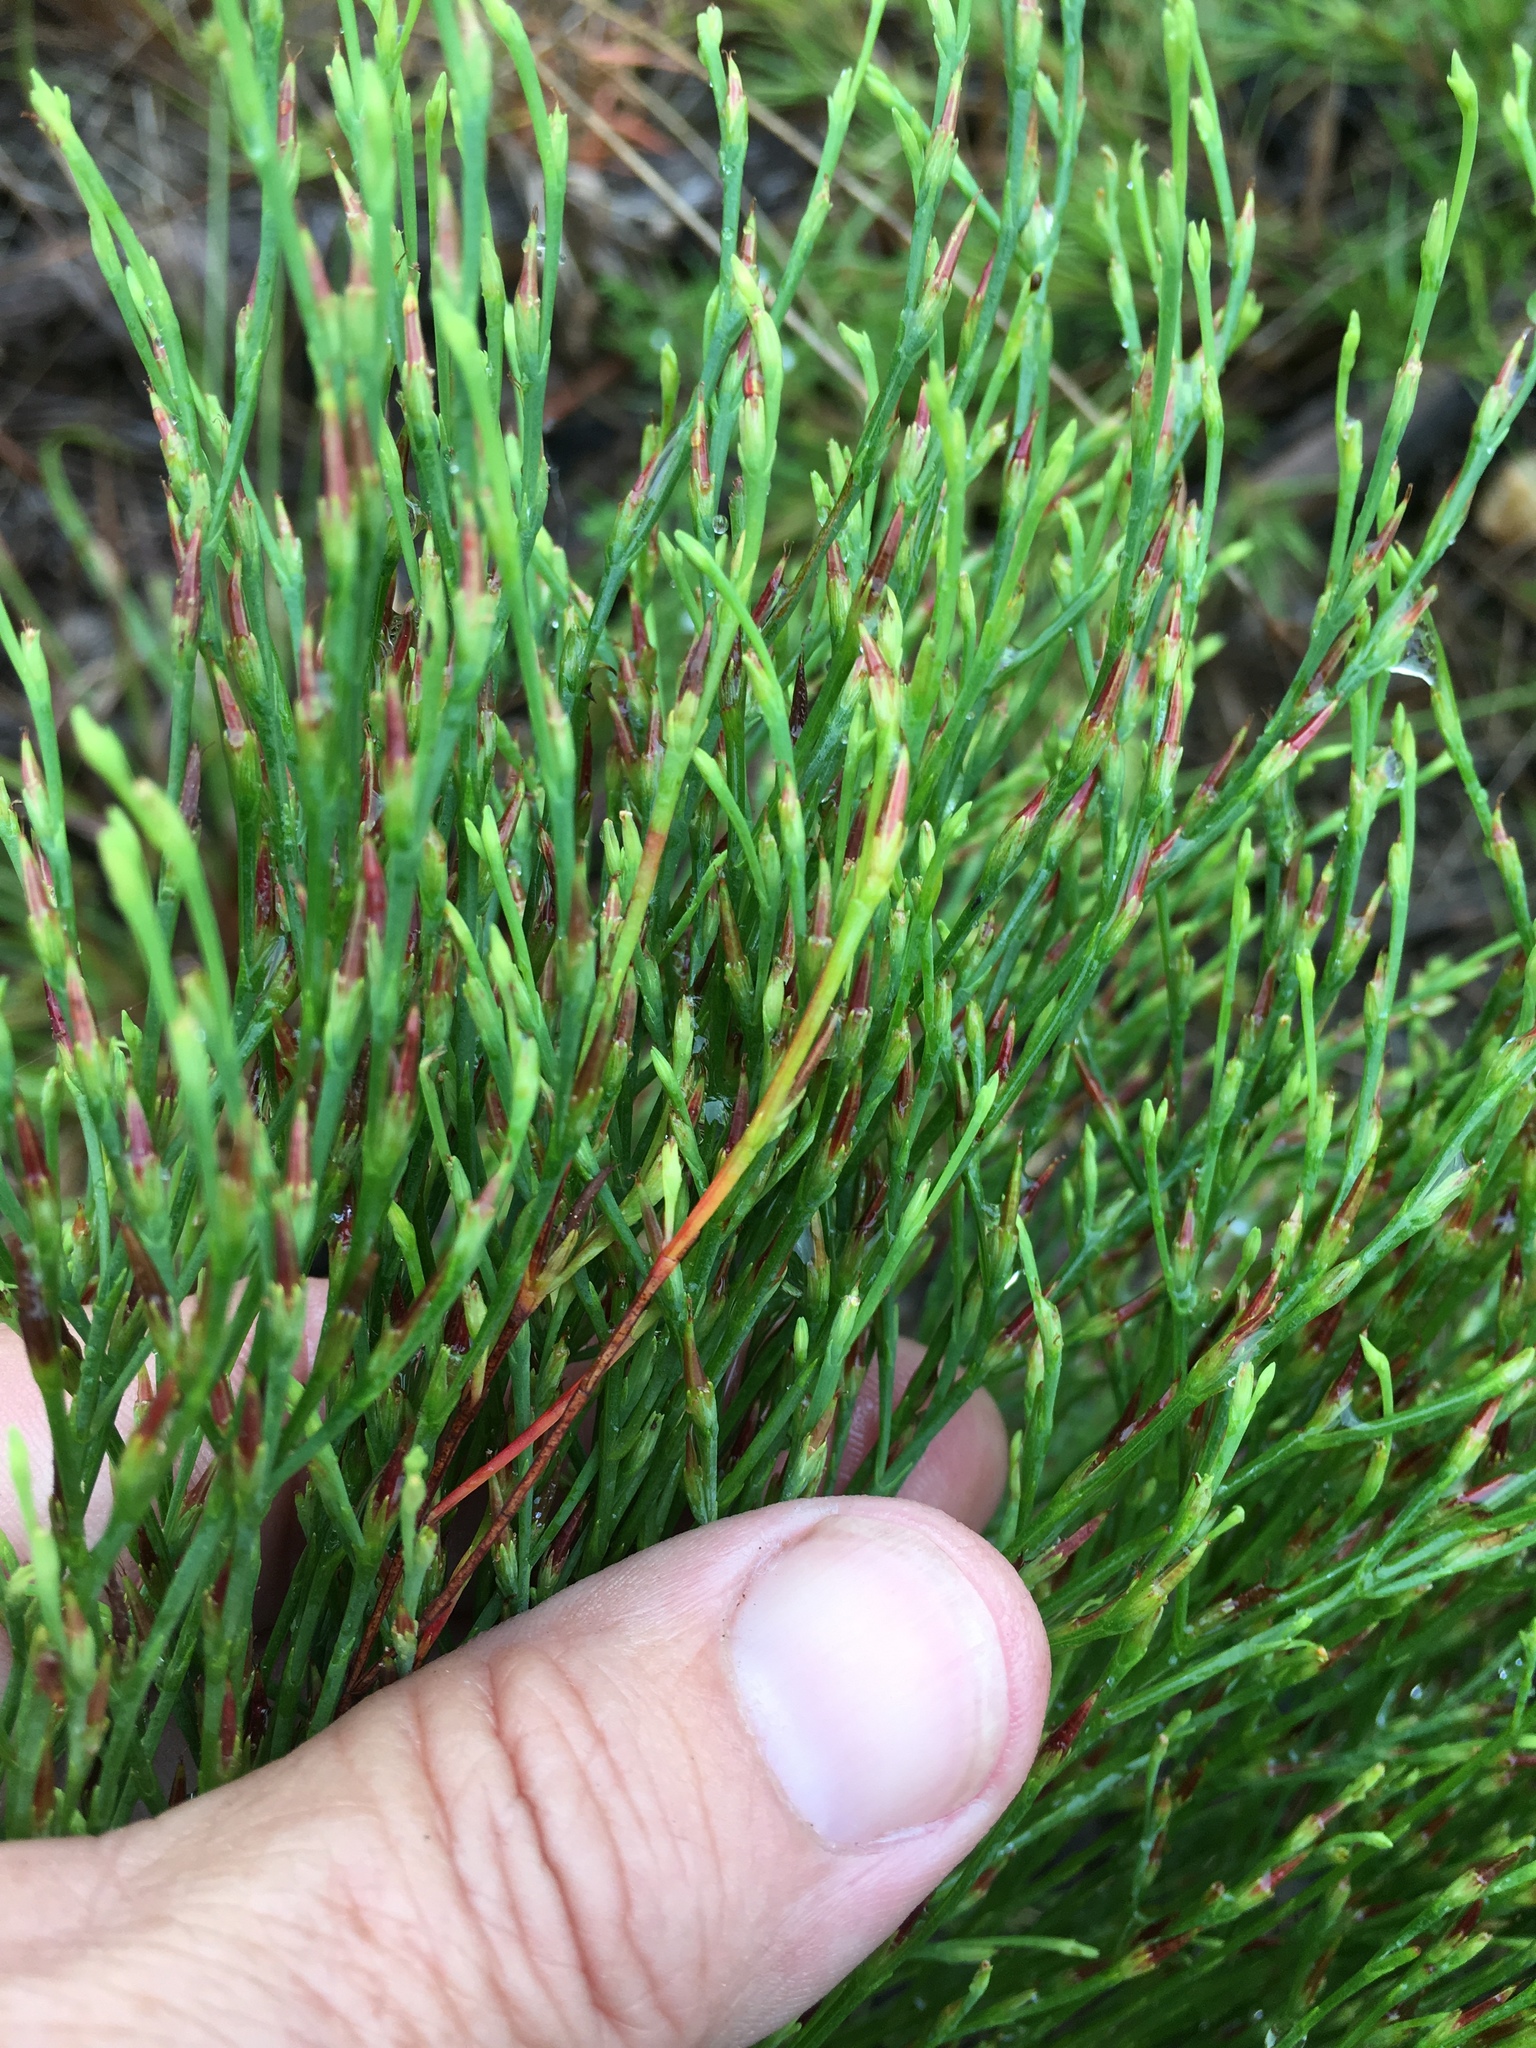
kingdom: Plantae
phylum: Tracheophyta
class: Magnoliopsida
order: Malpighiales
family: Hypericaceae
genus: Hypericum
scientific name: Hypericum gentianoides
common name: Gentian-leaved st. john's-wort
